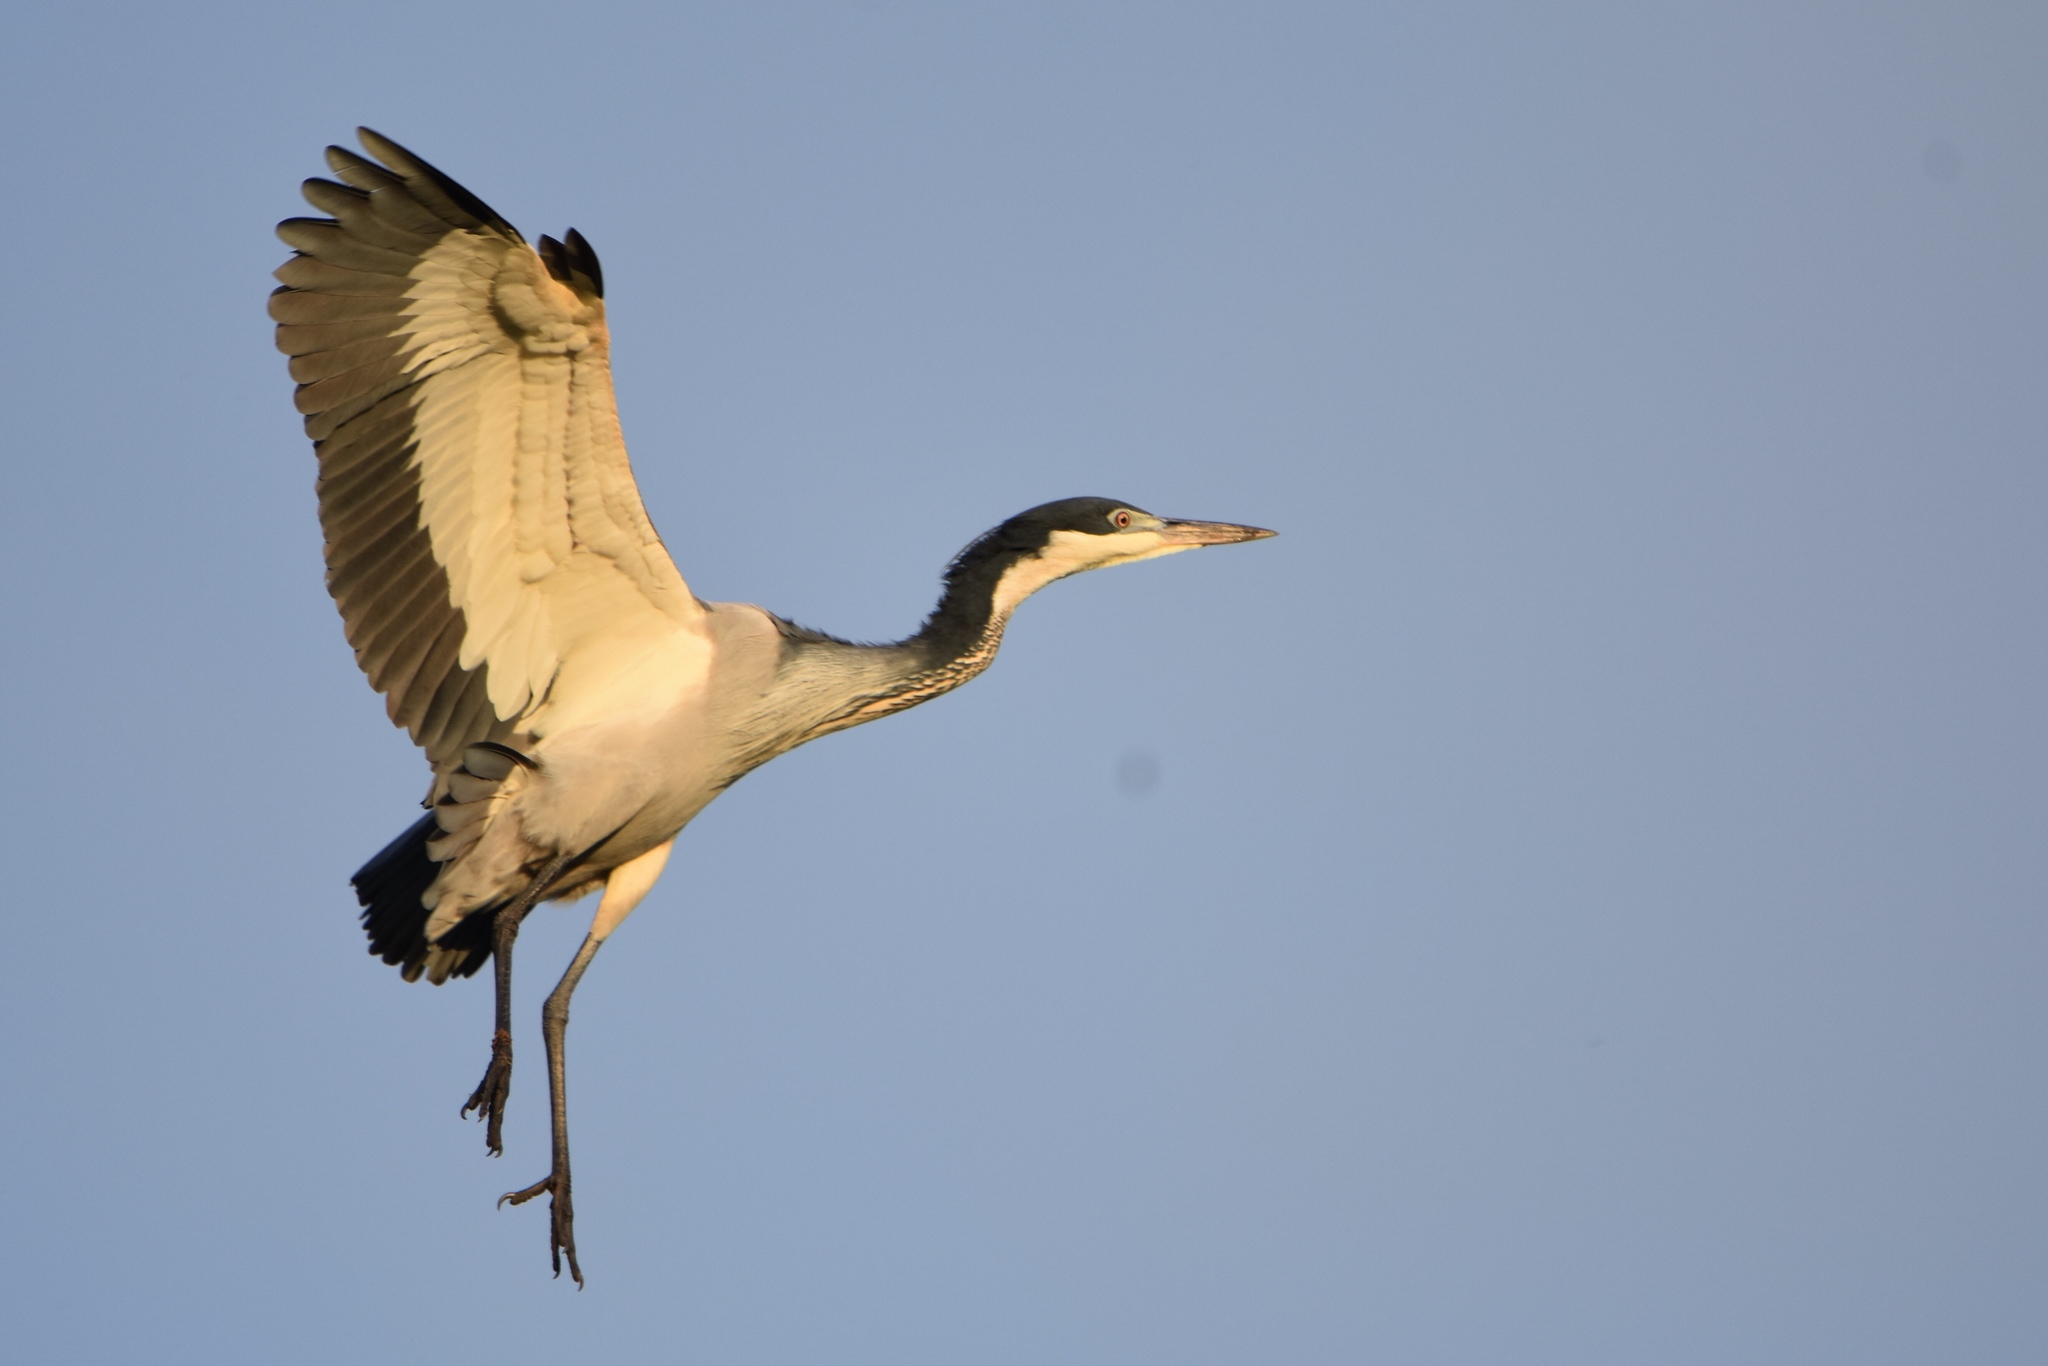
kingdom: Animalia
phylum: Chordata
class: Aves
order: Pelecaniformes
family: Ardeidae
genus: Ardea
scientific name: Ardea melanocephala
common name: Black-headed heron
